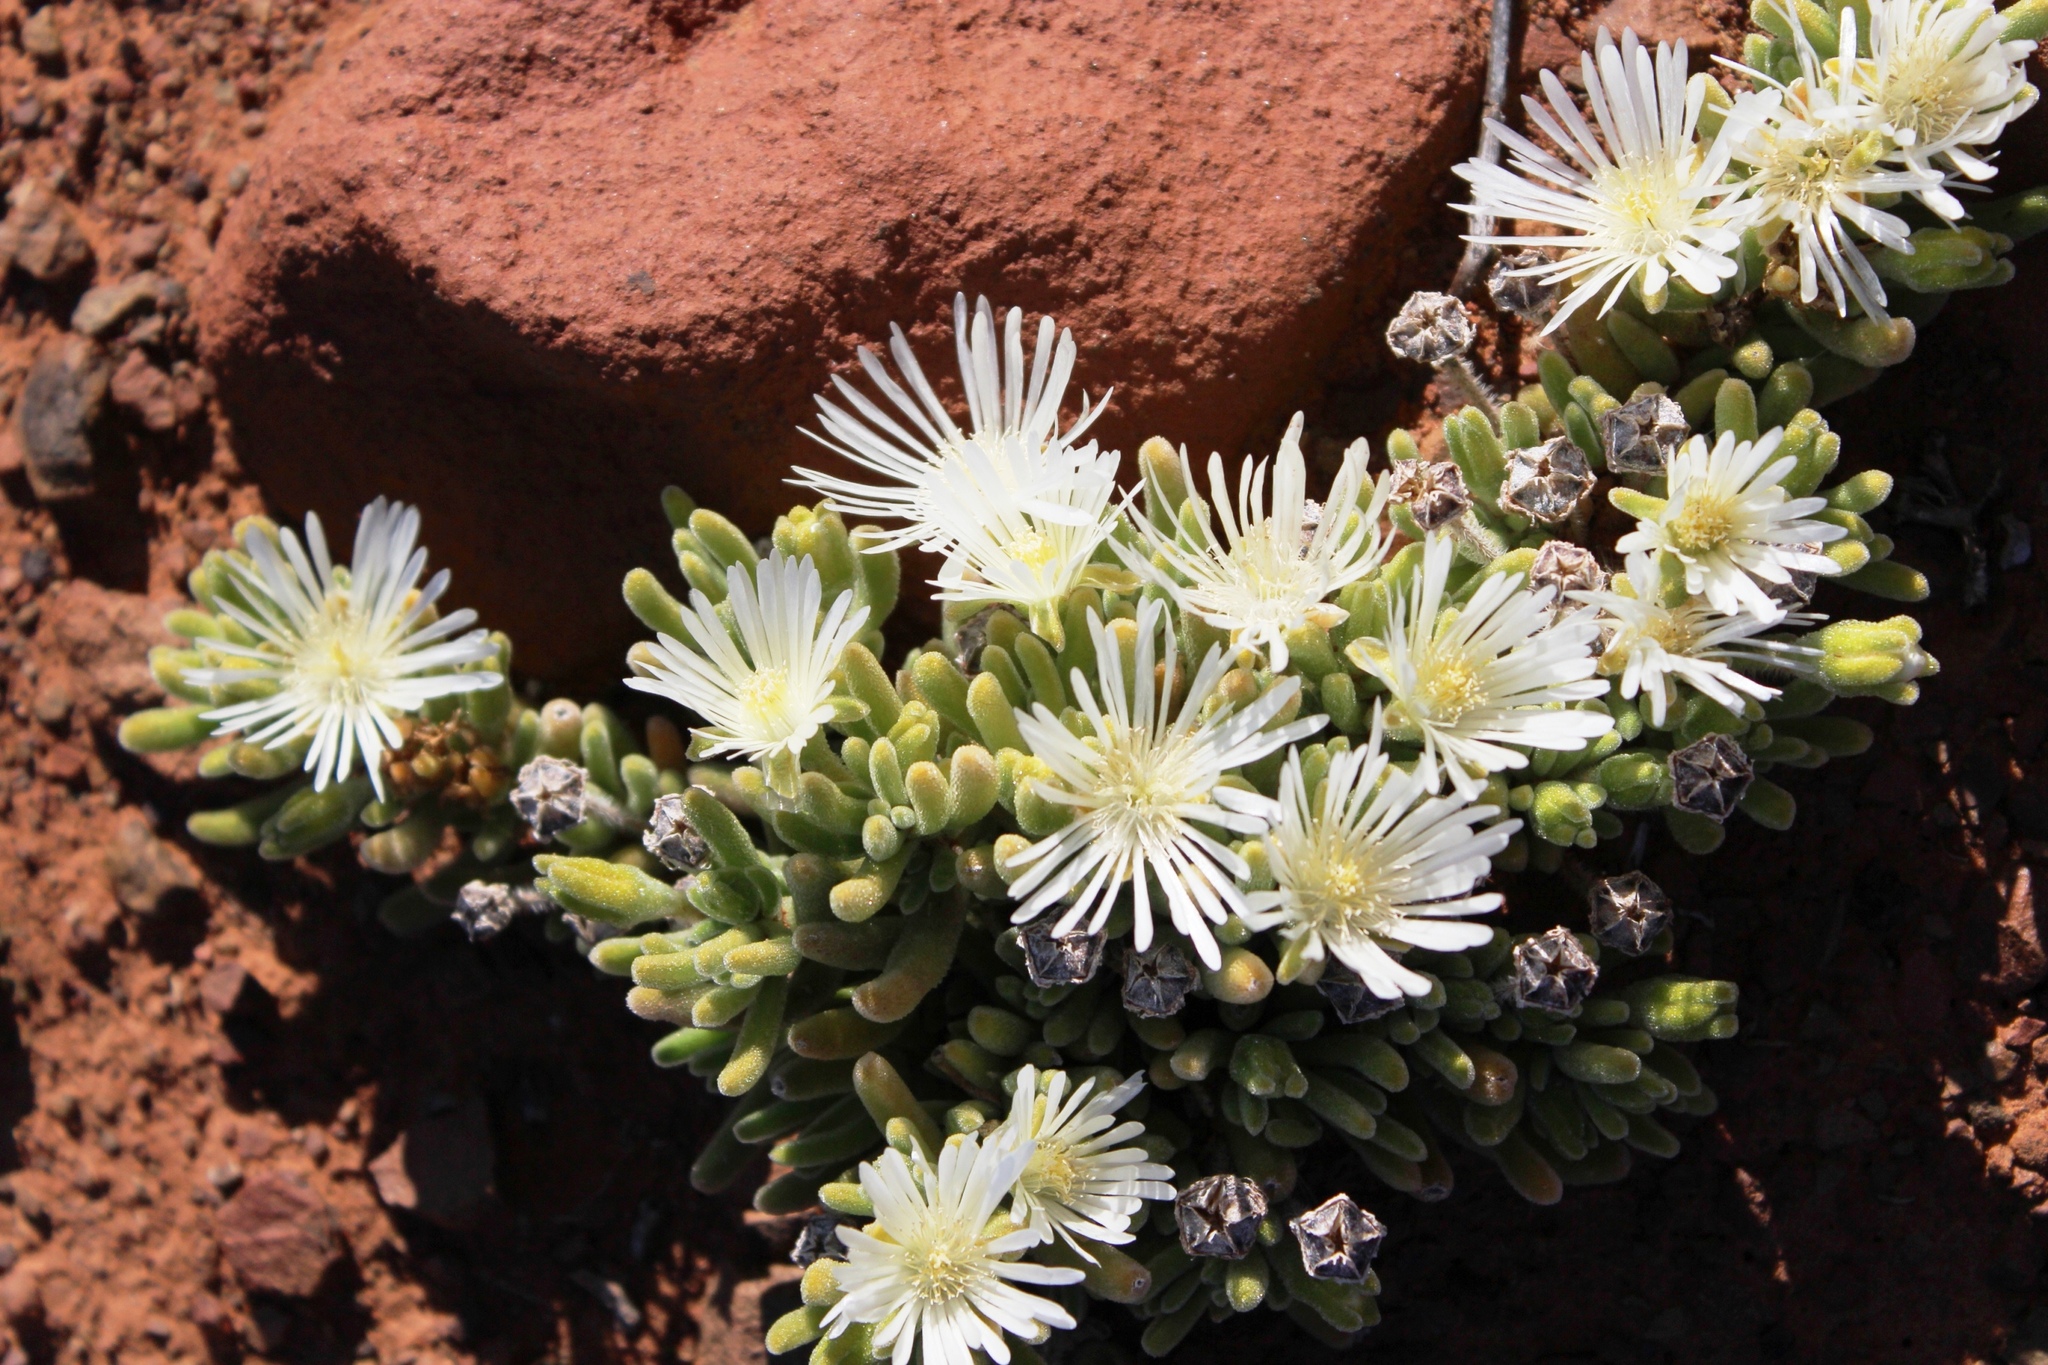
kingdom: Plantae
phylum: Tracheophyta
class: Magnoliopsida
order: Caryophyllales
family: Aizoaceae
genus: Drosanthemum
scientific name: Drosanthemum eburneum
